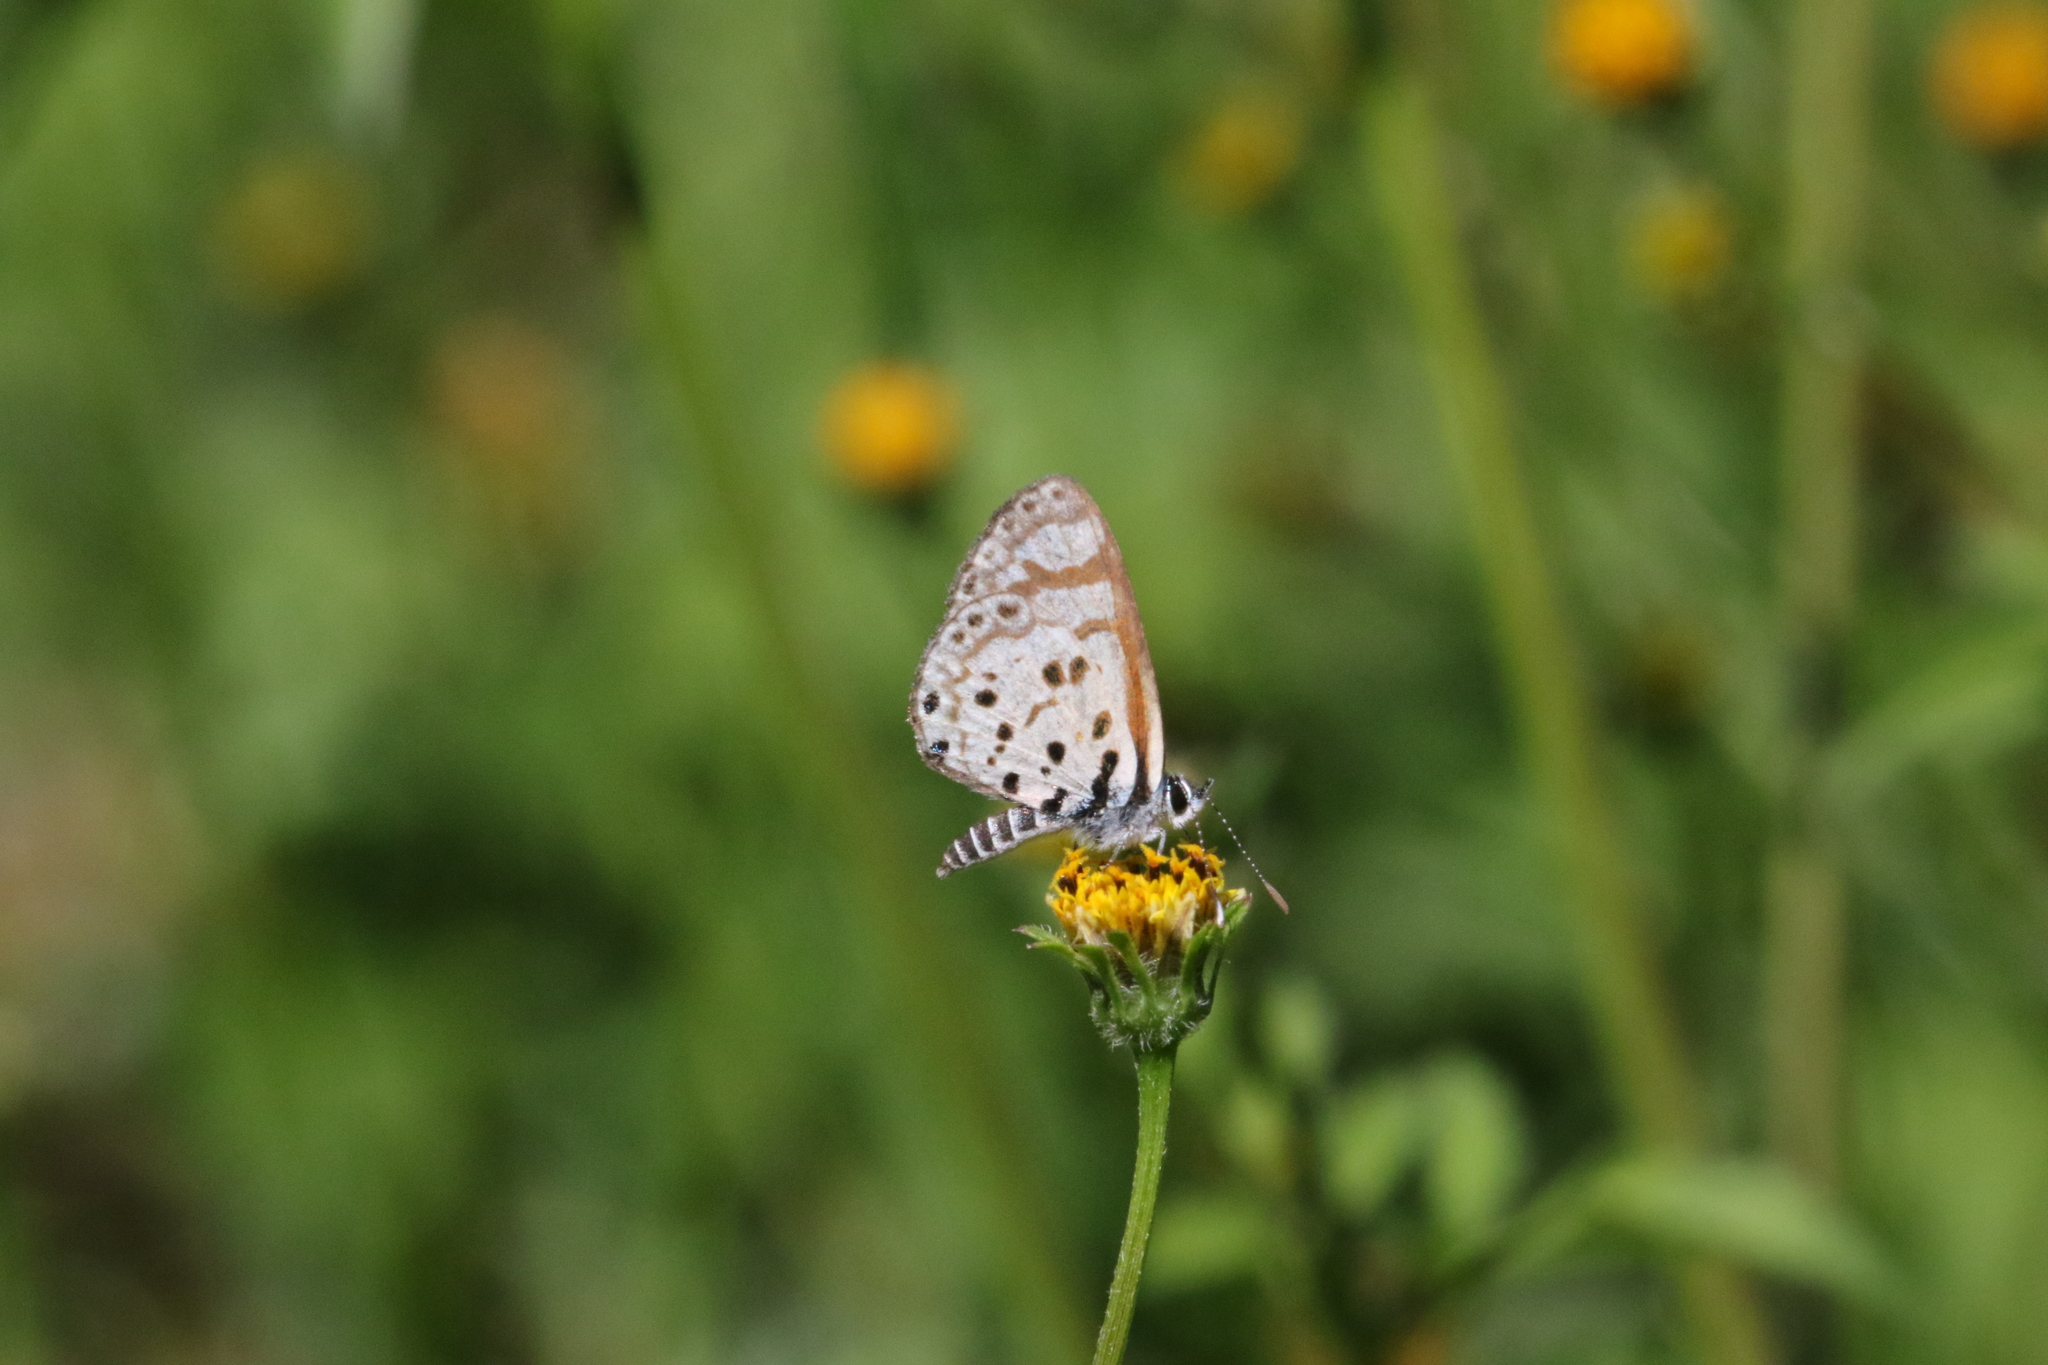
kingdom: Animalia
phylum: Arthropoda
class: Insecta
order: Lepidoptera
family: Lycaenidae
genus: Azanus
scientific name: Azanus natalensis
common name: Natal babul blue
